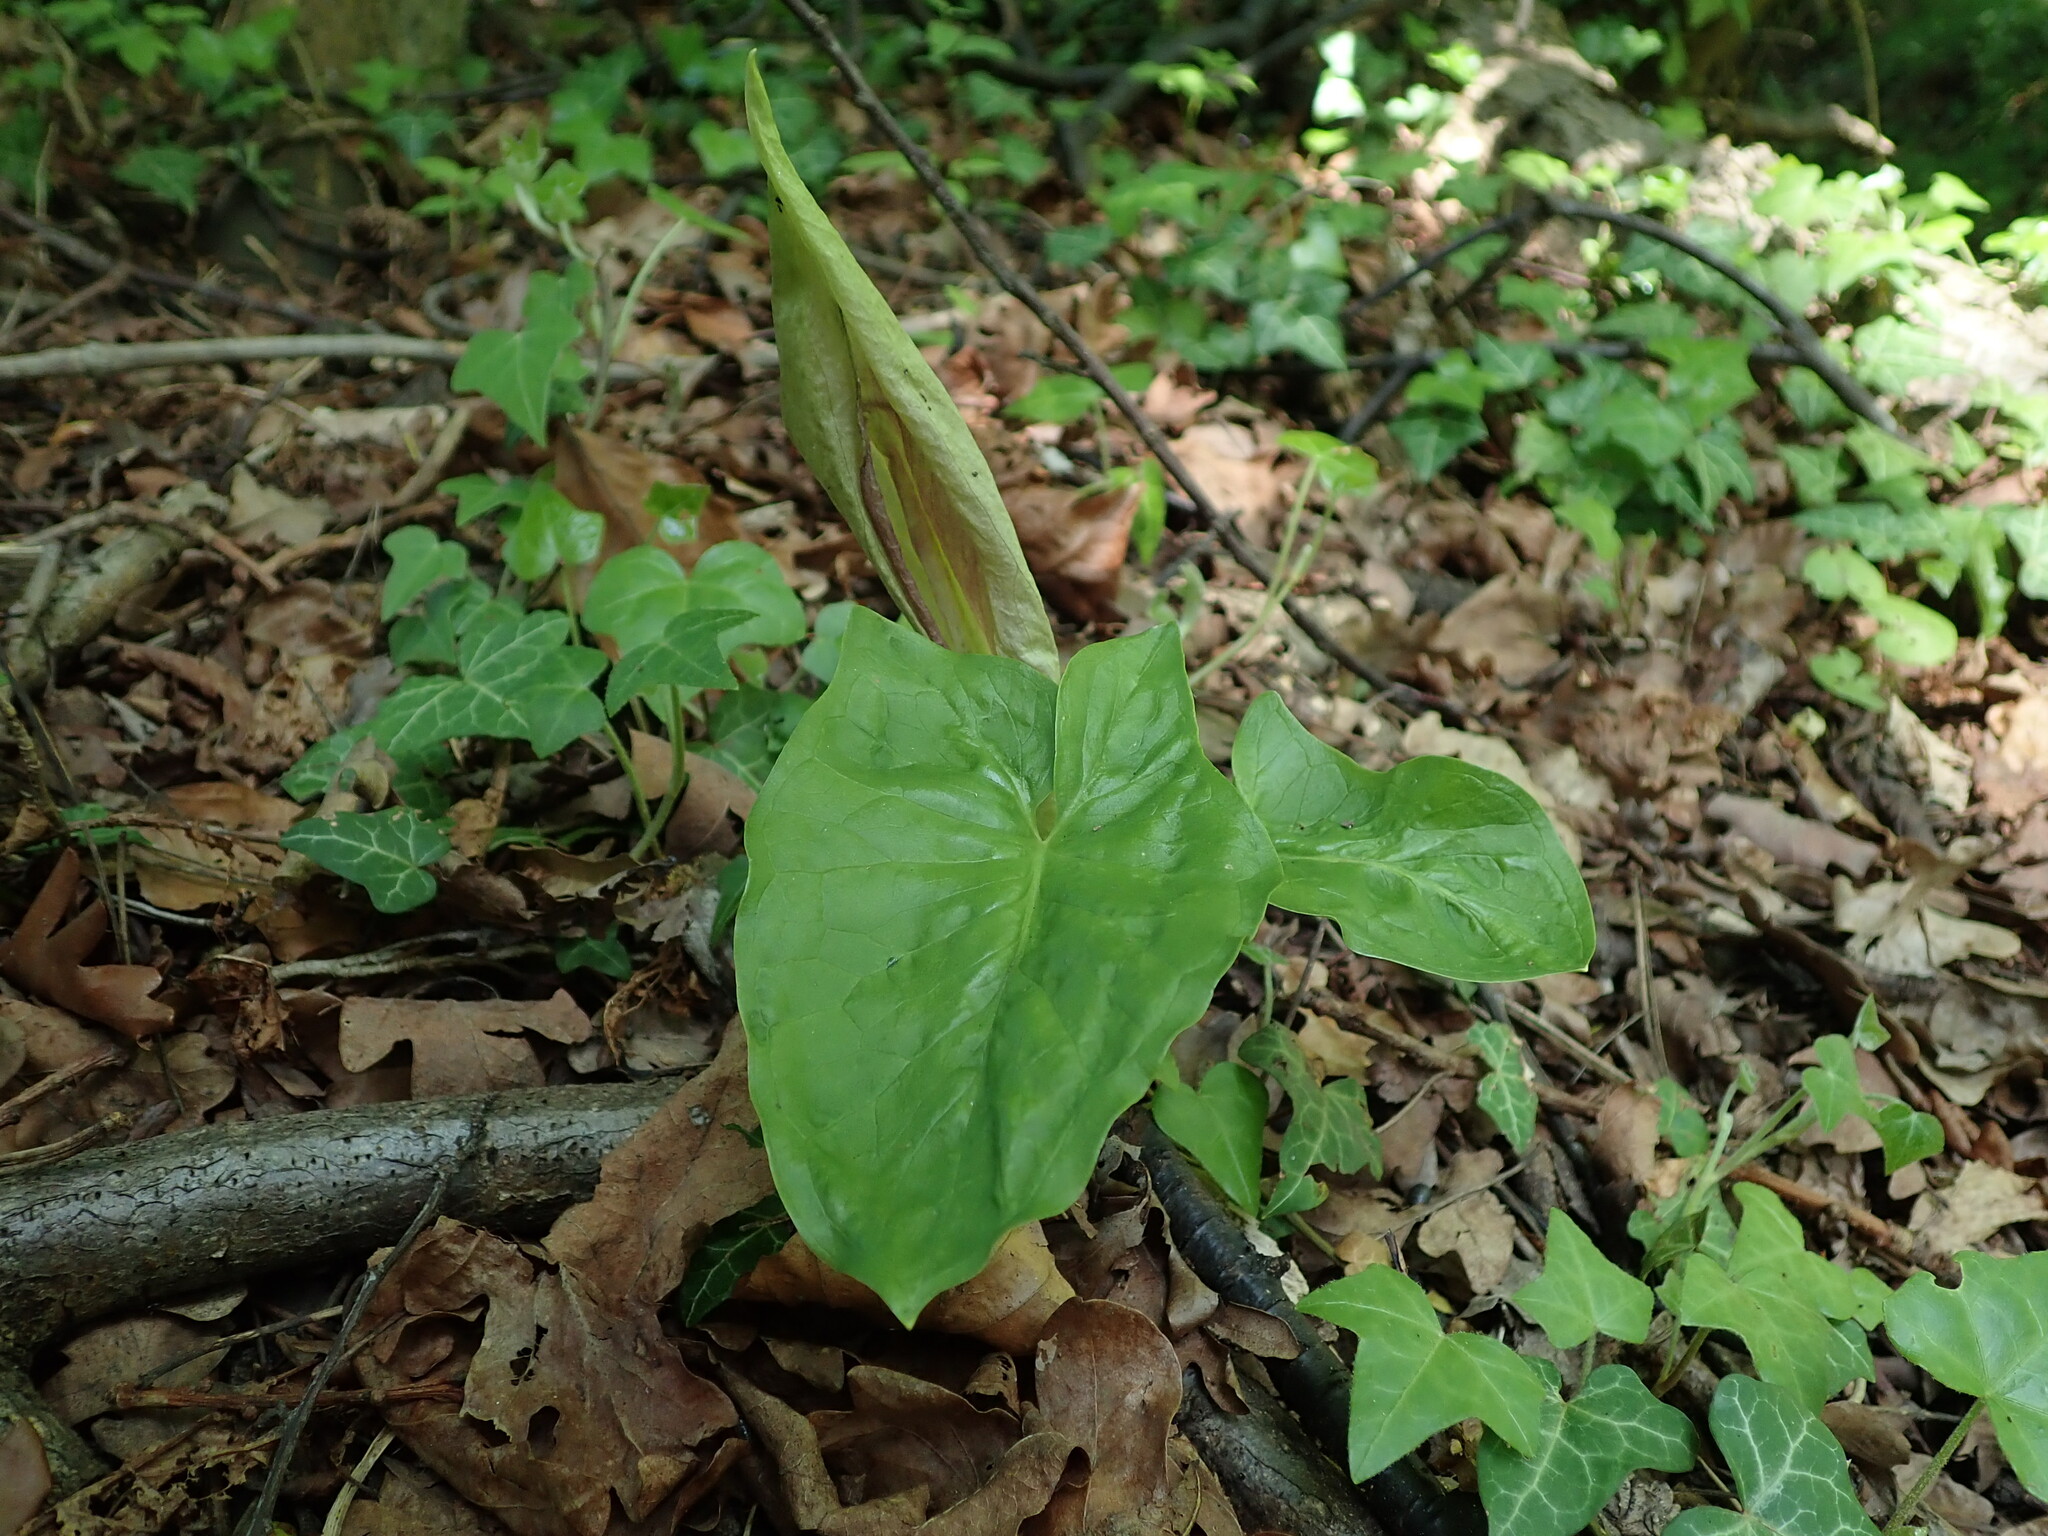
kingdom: Plantae
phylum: Tracheophyta
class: Liliopsida
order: Alismatales
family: Araceae
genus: Arum
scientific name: Arum maculatum
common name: Lords-and-ladies
